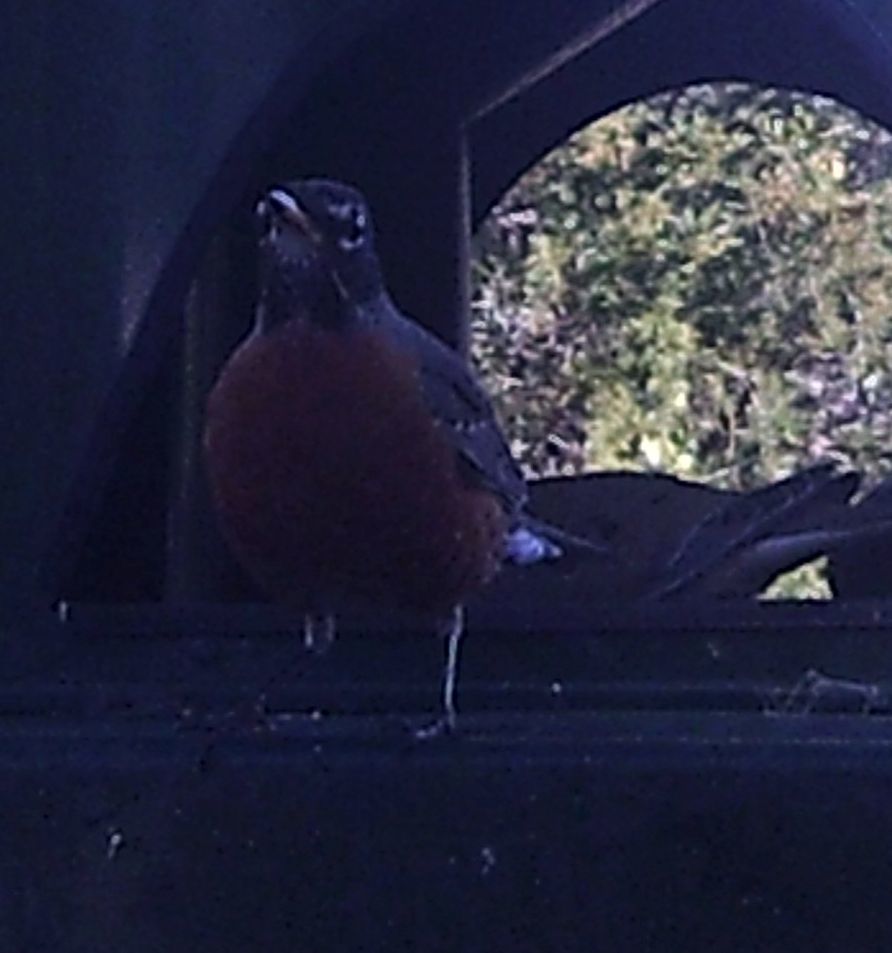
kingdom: Animalia
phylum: Chordata
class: Aves
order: Passeriformes
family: Turdidae
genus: Turdus
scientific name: Turdus migratorius
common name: American robin
